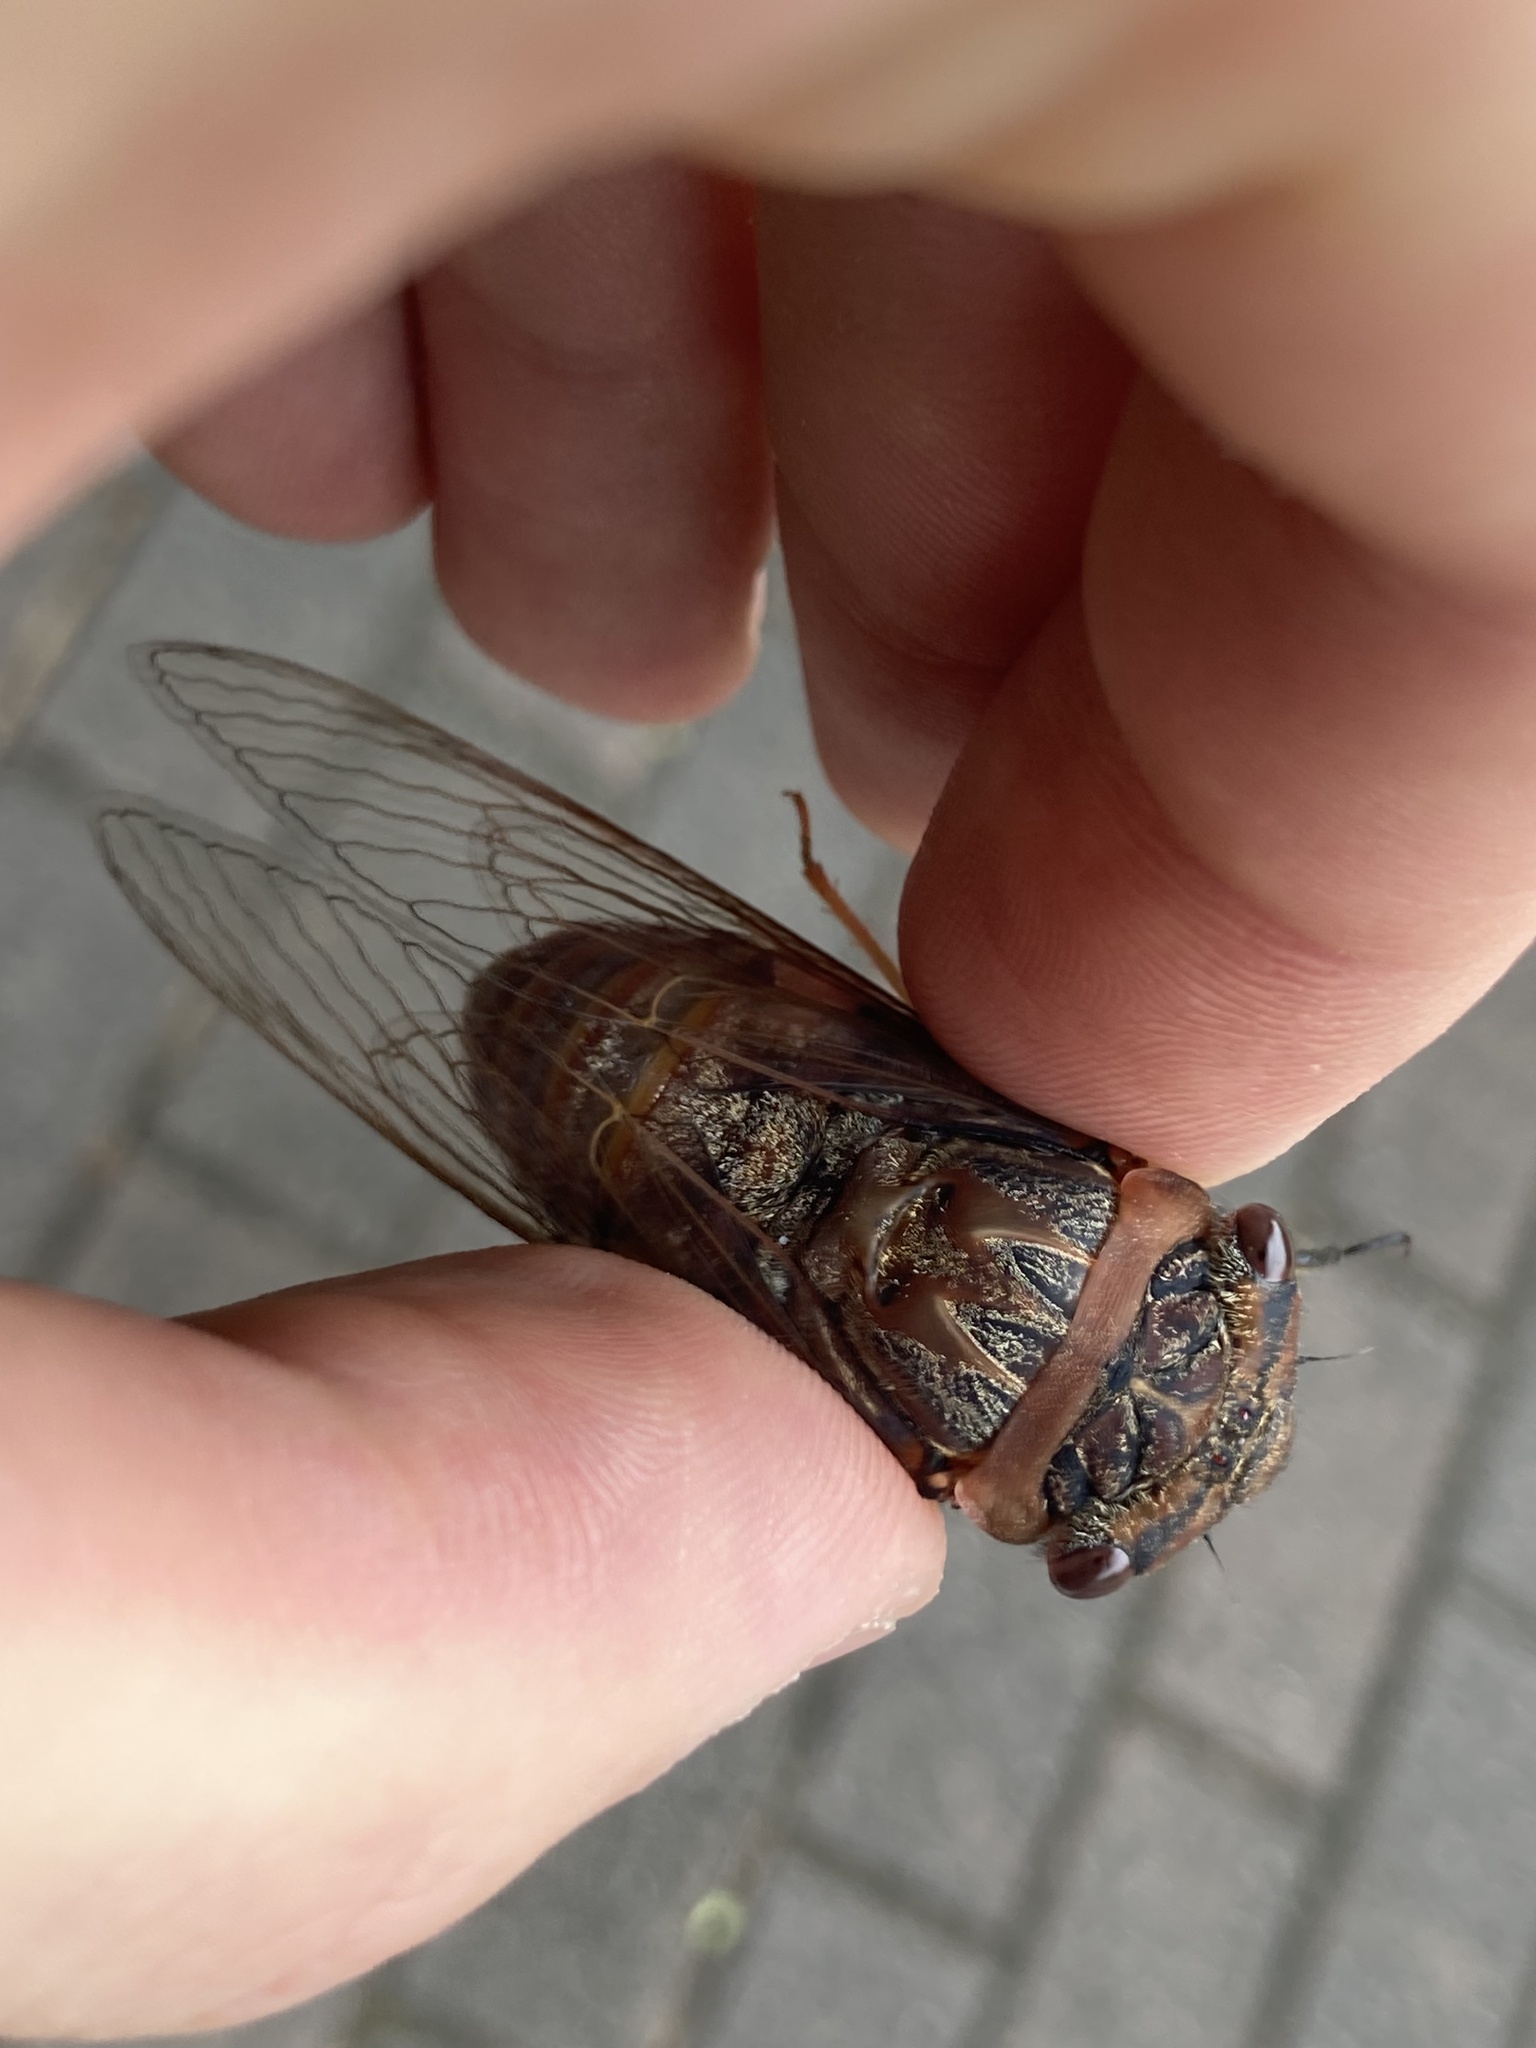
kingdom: Animalia
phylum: Arthropoda
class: Insecta
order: Hemiptera
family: Cicadidae
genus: Psaltoda
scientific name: Psaltoda plaga
